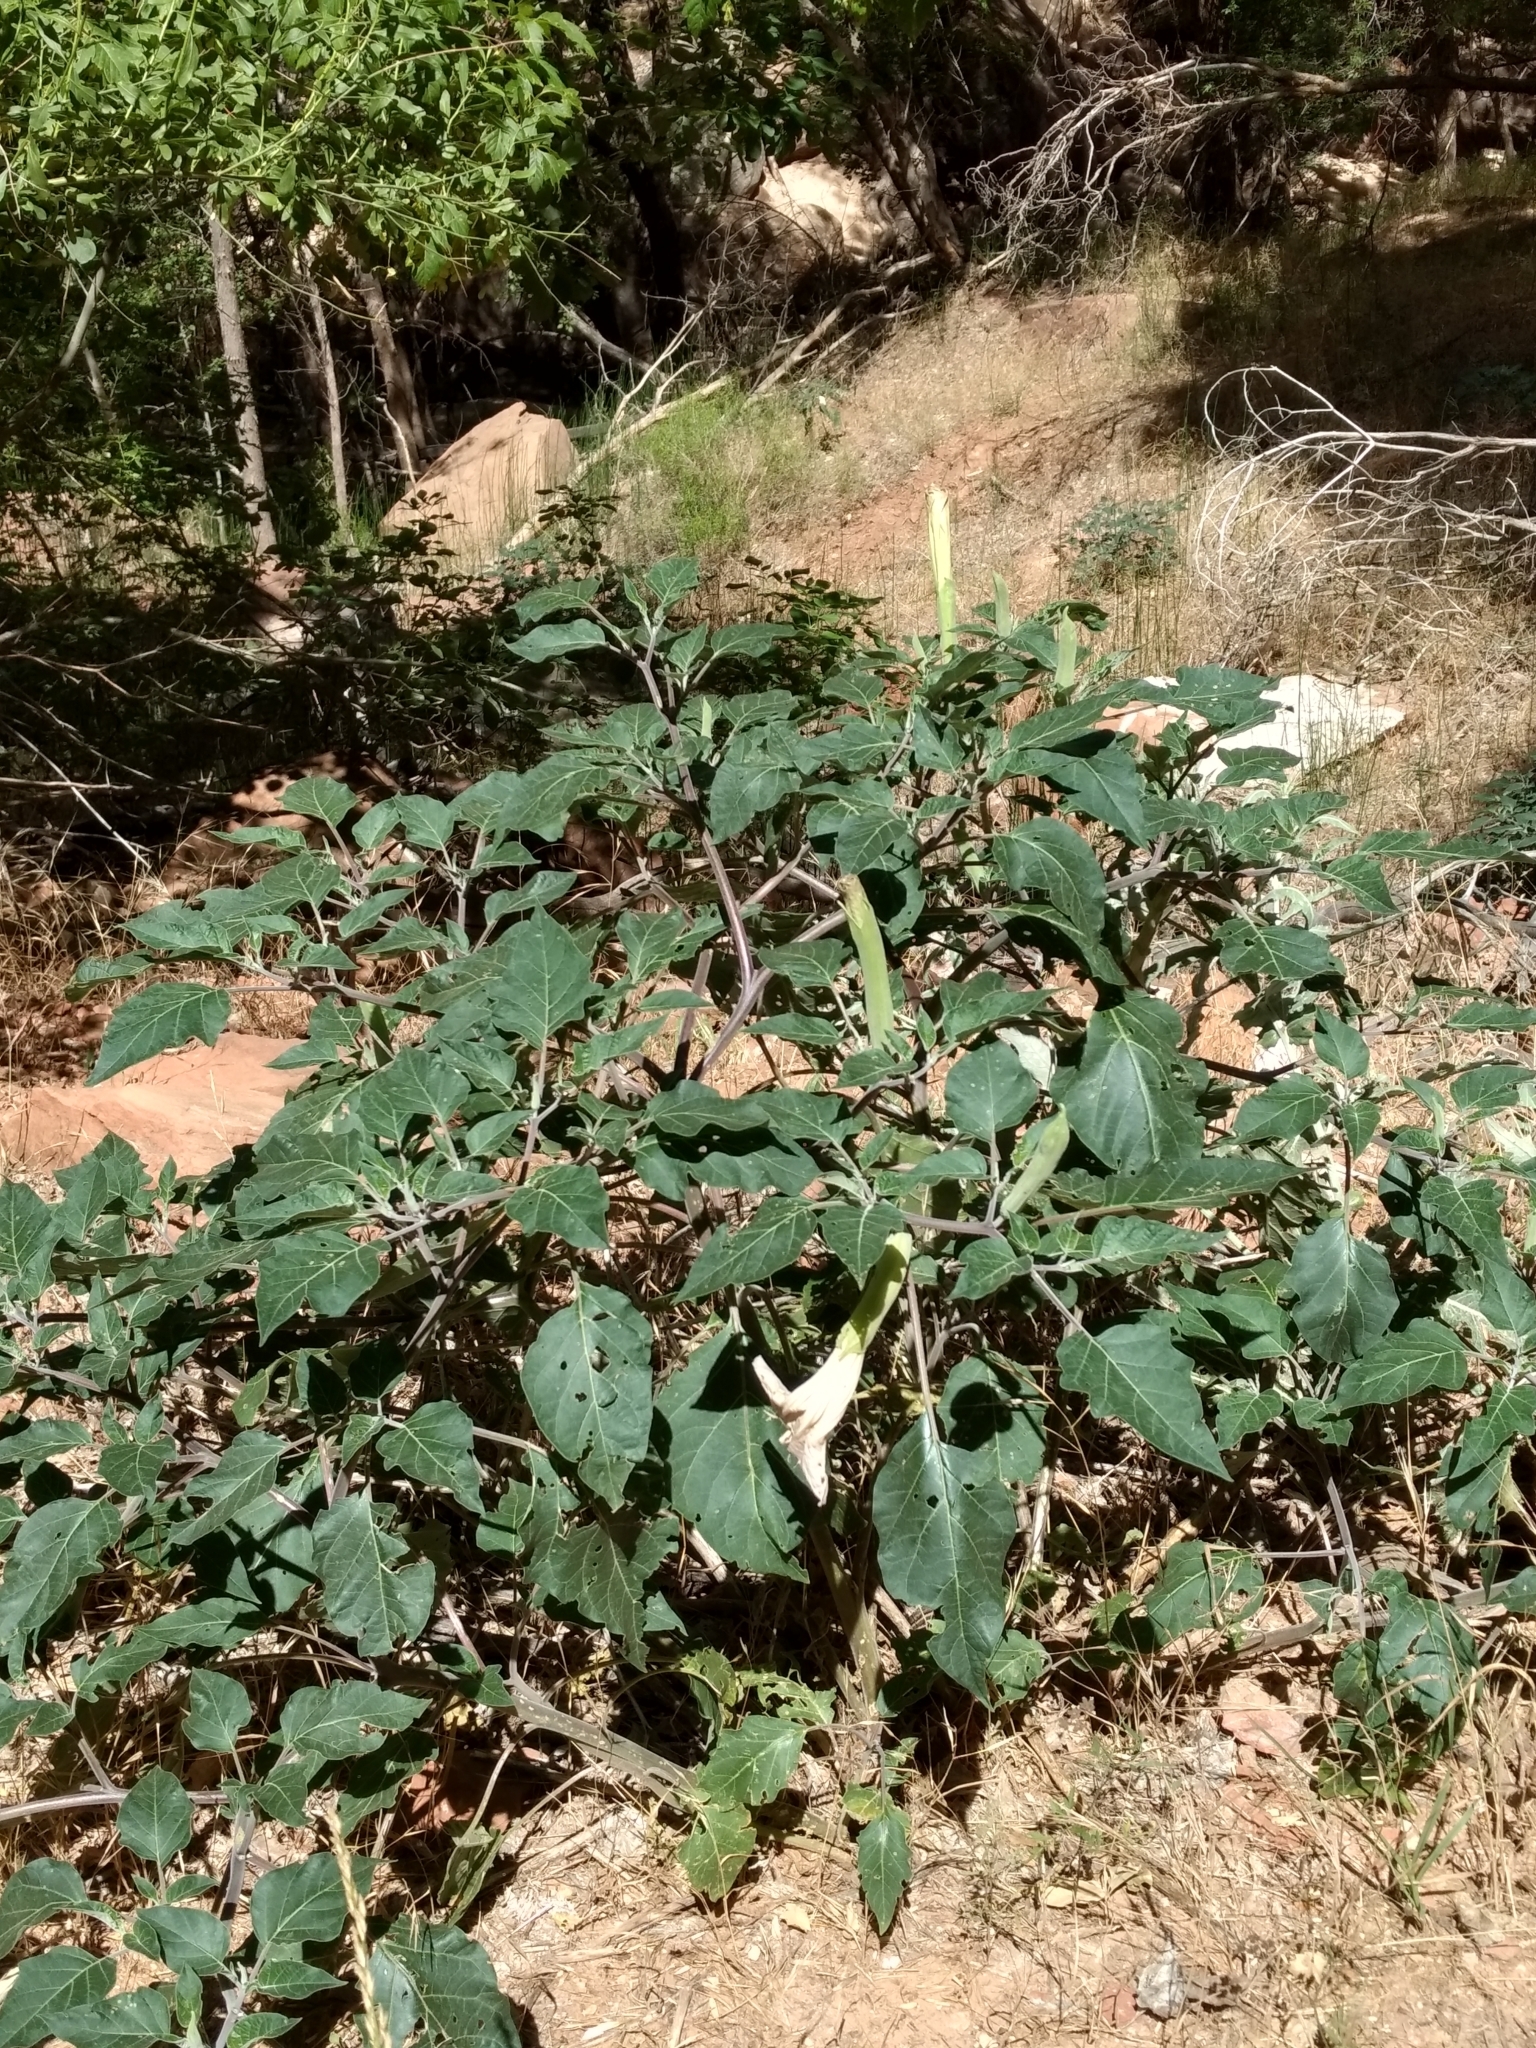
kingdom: Plantae
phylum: Tracheophyta
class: Magnoliopsida
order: Solanales
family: Solanaceae
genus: Datura
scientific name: Datura wrightii
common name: Sacred thorn-apple
